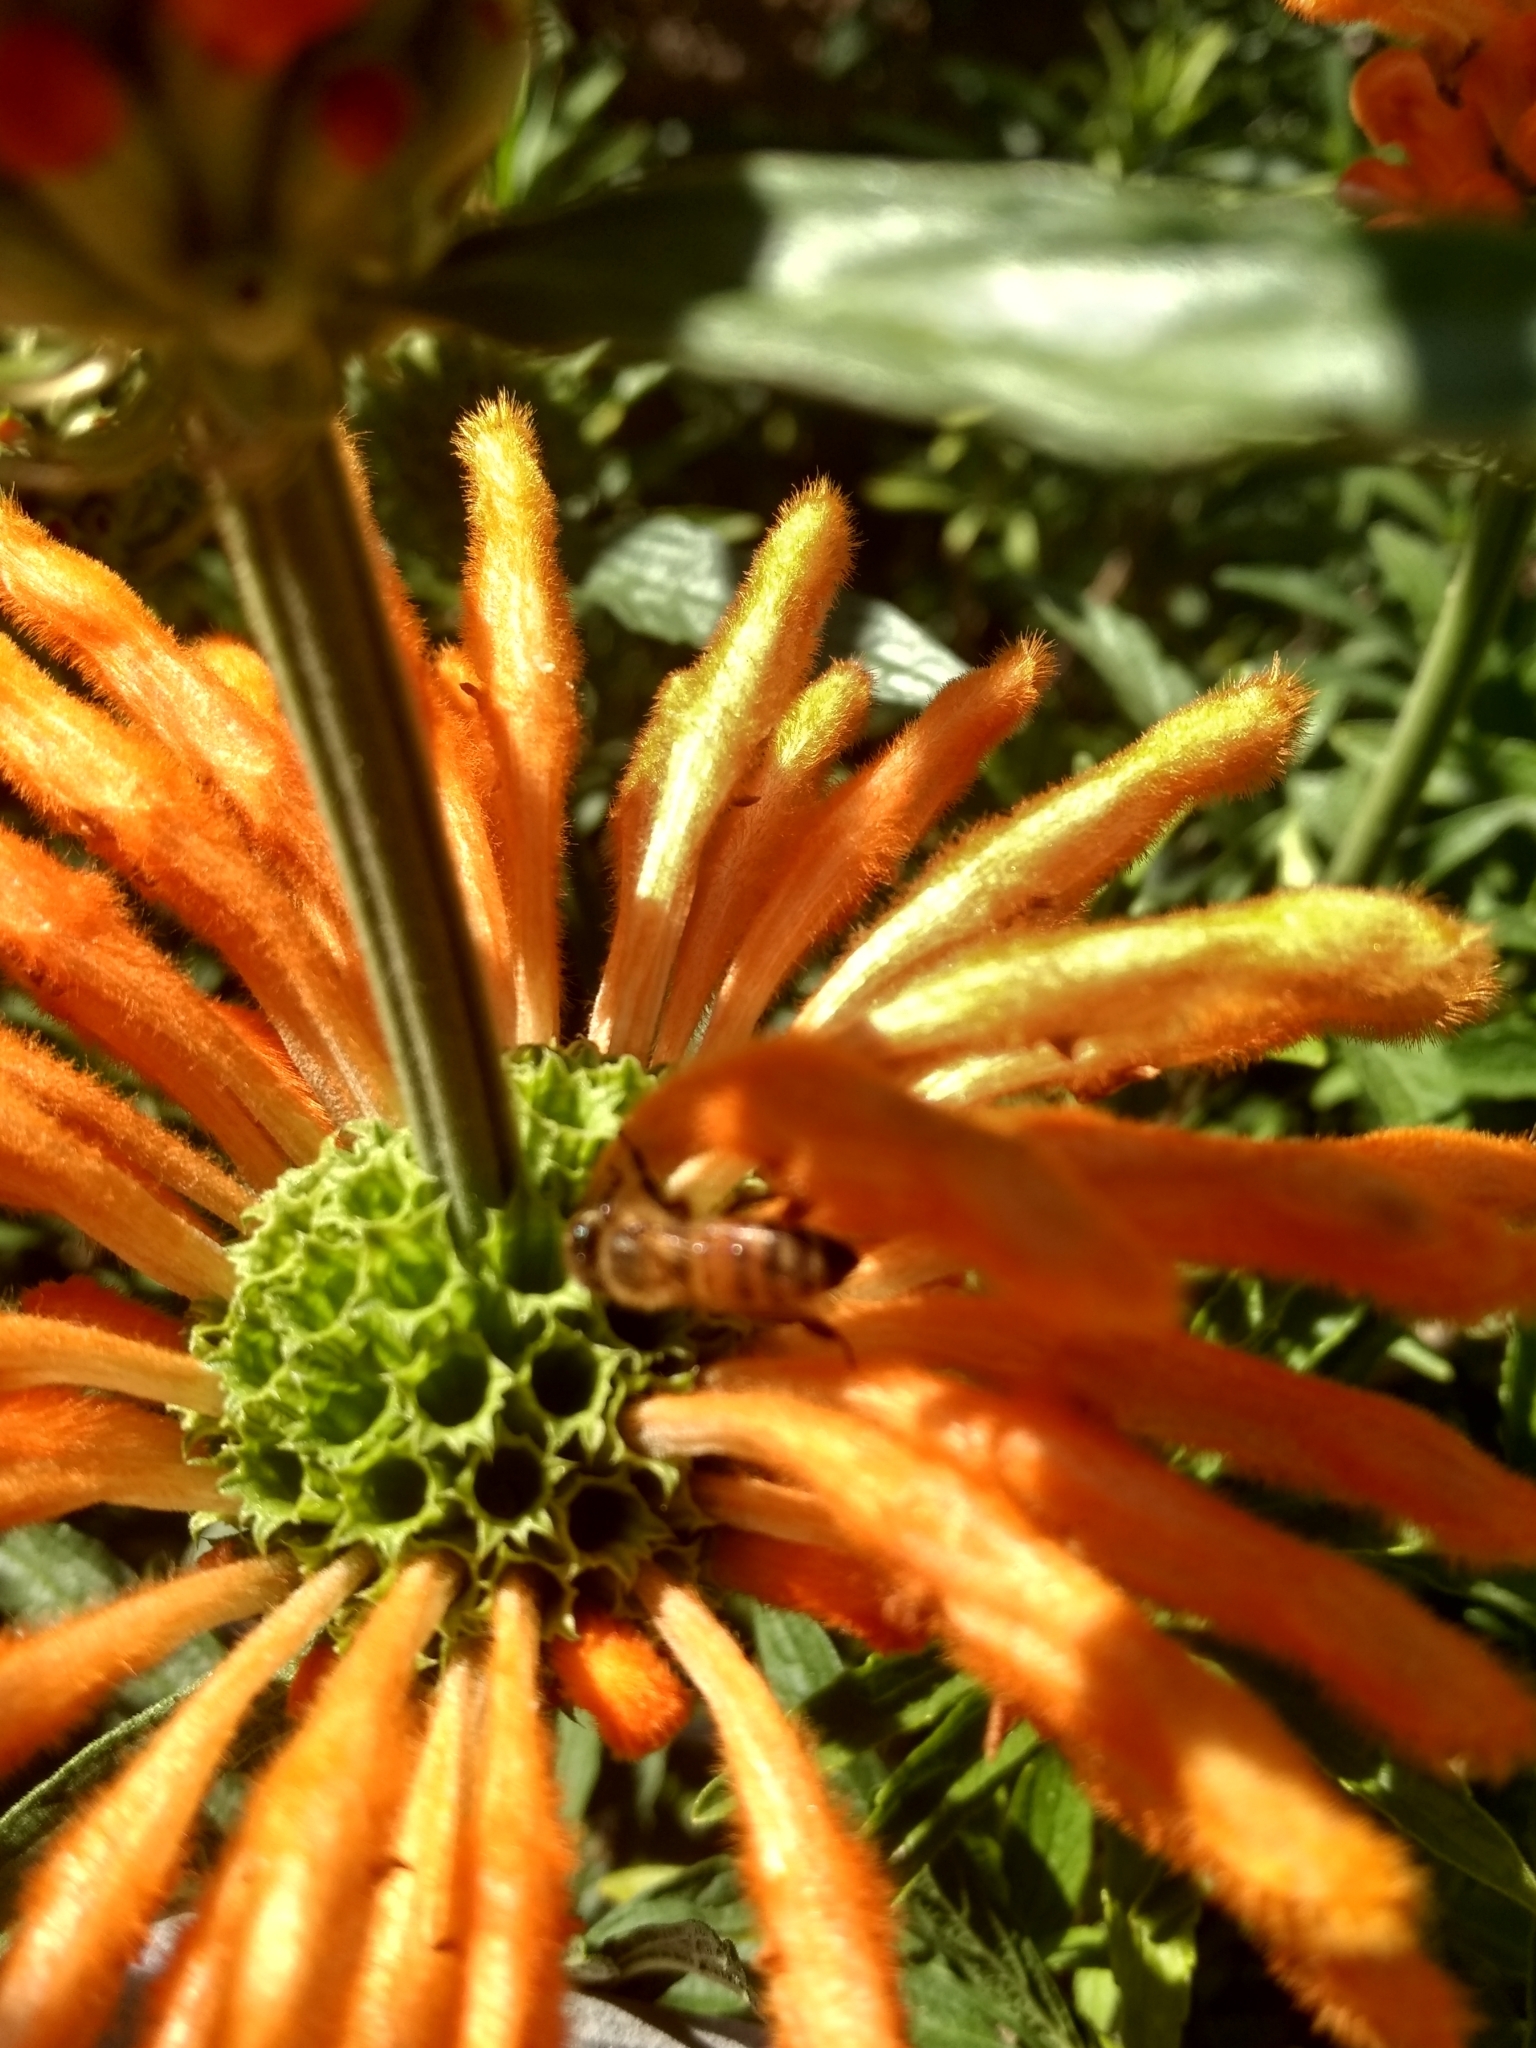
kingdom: Animalia
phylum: Arthropoda
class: Insecta
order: Hymenoptera
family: Apidae
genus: Apis
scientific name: Apis mellifera
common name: Honey bee
